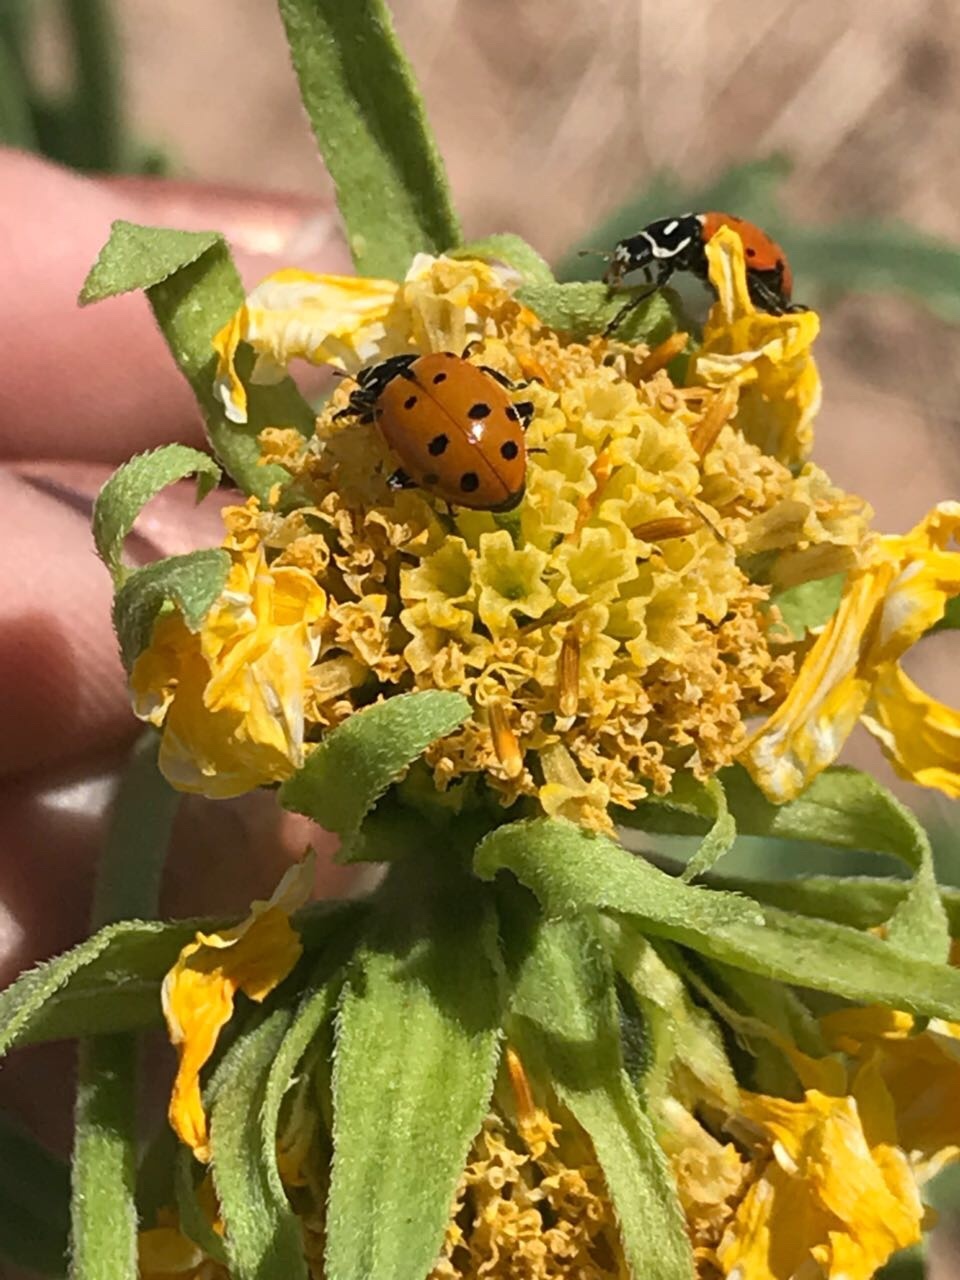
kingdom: Animalia
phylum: Arthropoda
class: Insecta
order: Coleoptera
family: Coccinellidae
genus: Hippodamia
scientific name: Hippodamia convergens
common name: Convergent lady beetle
